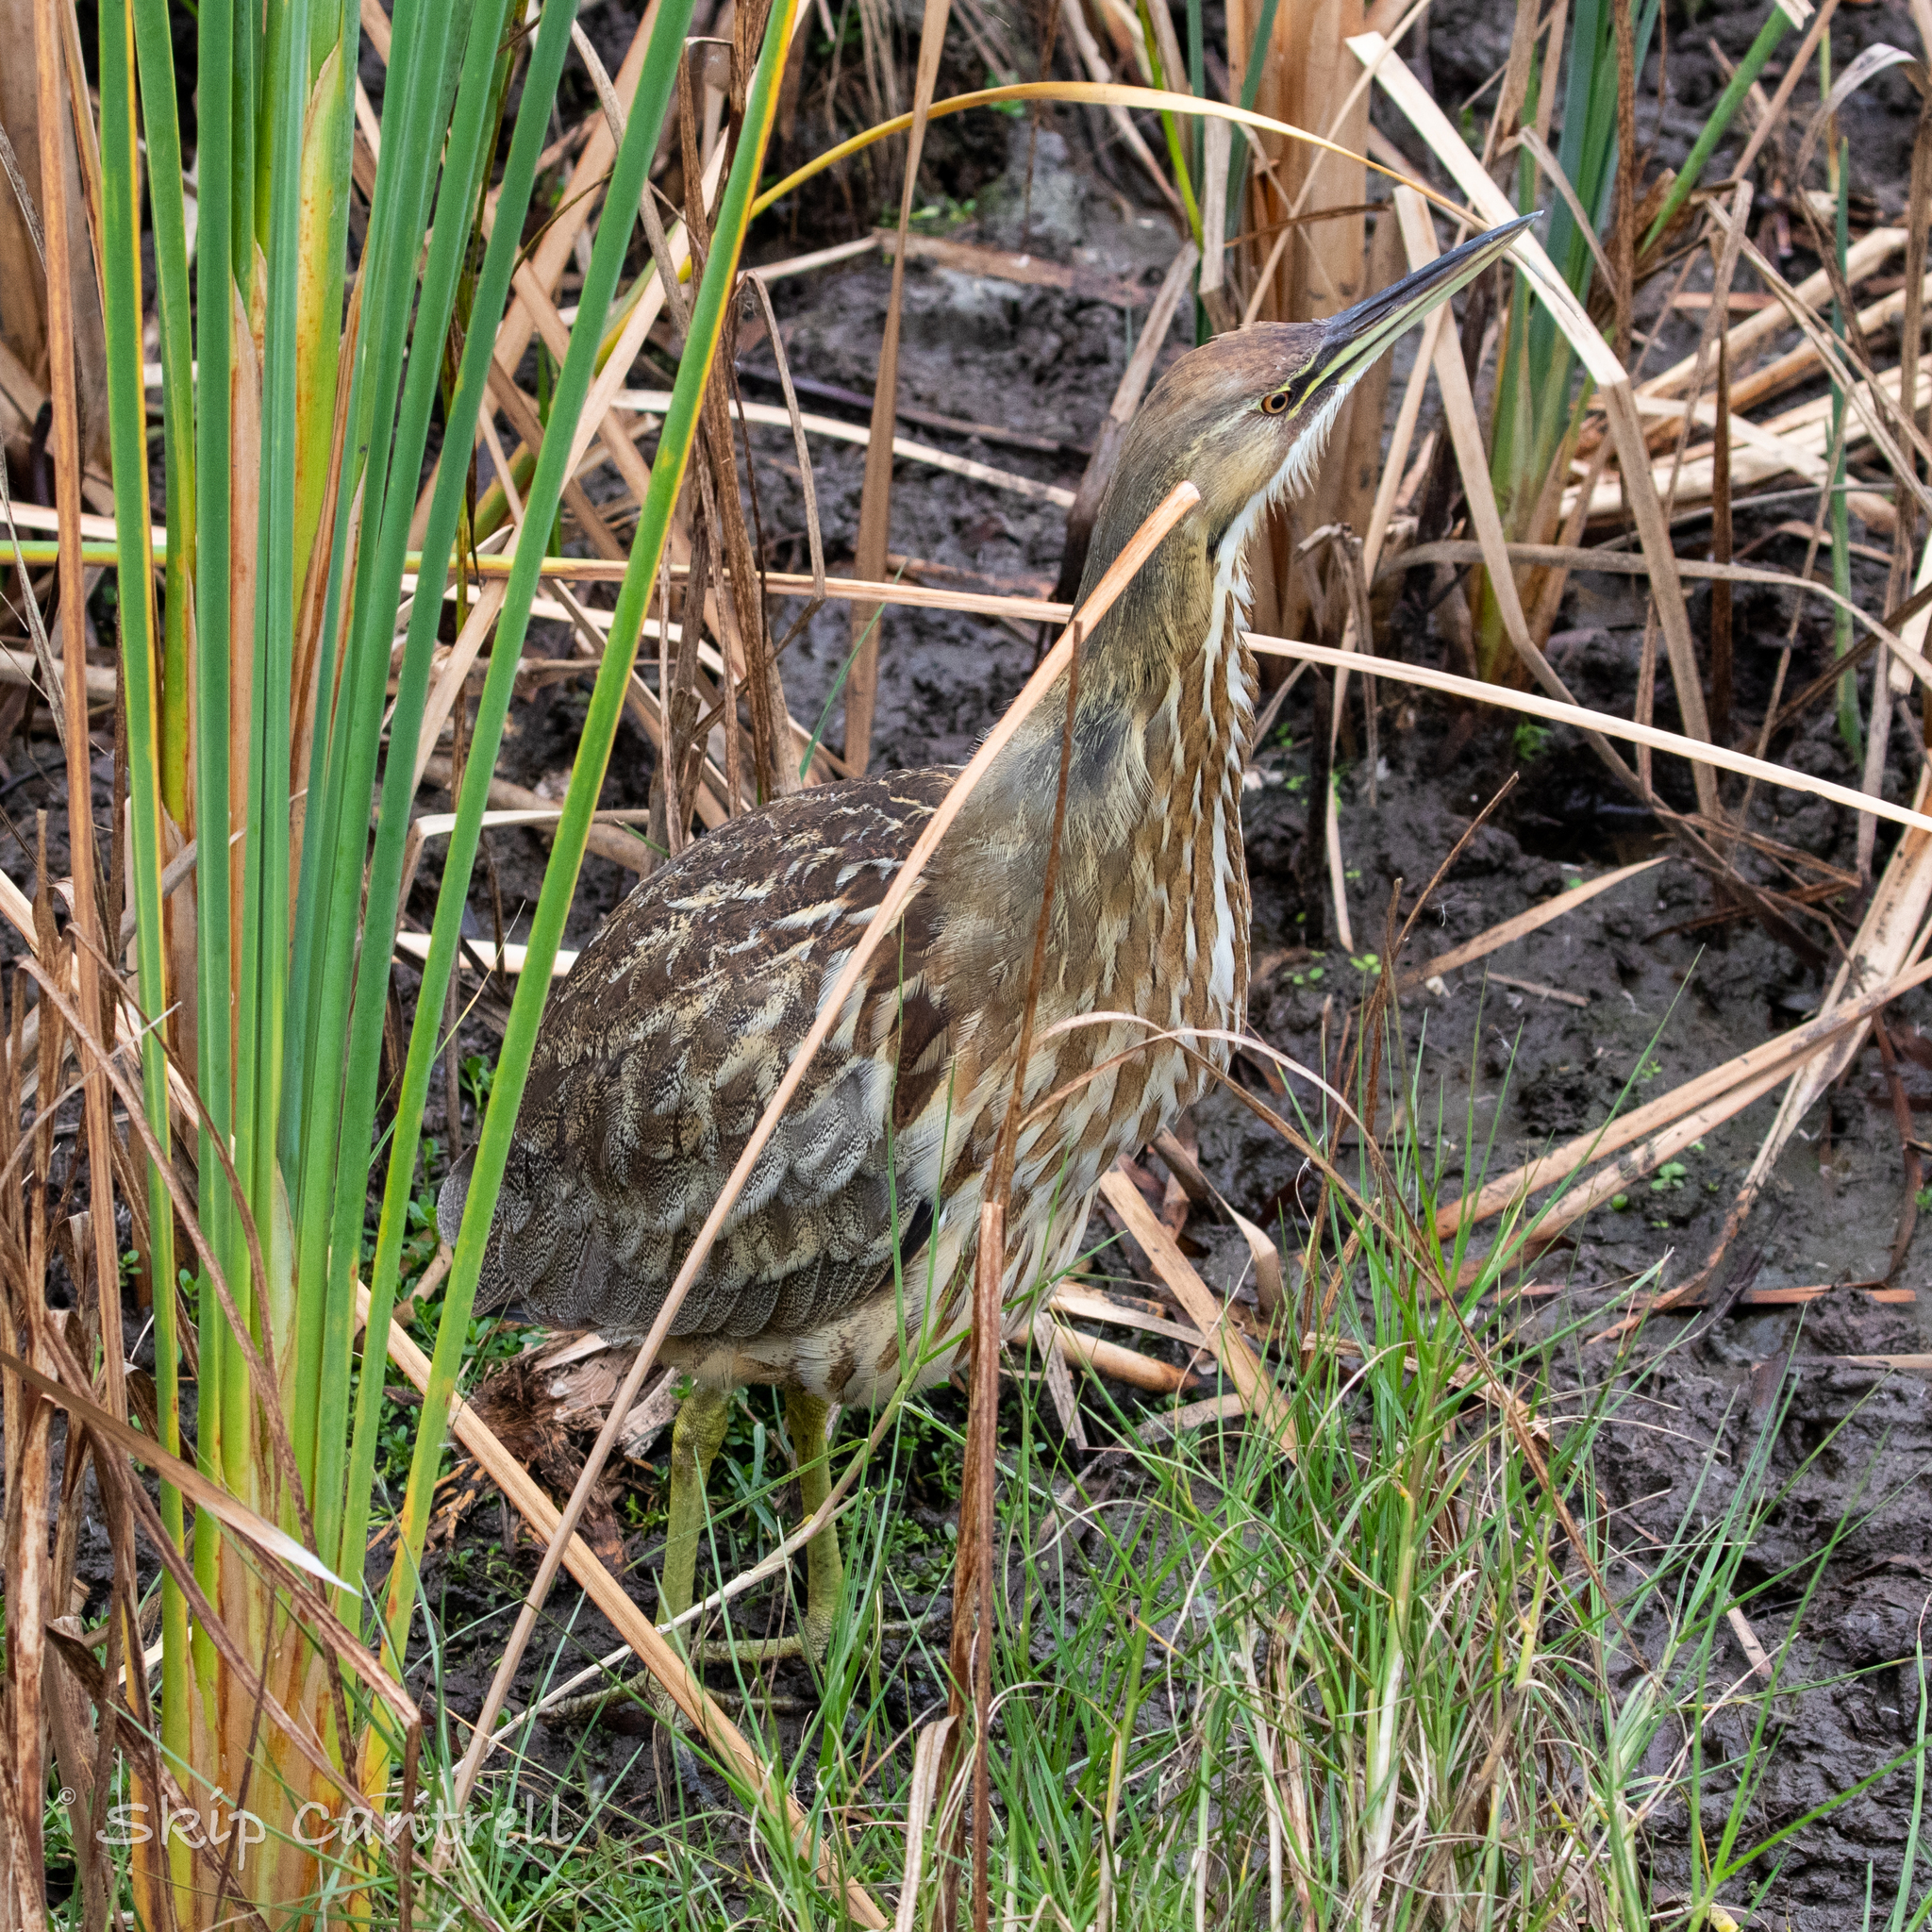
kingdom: Animalia
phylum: Chordata
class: Aves
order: Pelecaniformes
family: Ardeidae
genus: Botaurus
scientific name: Botaurus lentiginosus
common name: American bittern
